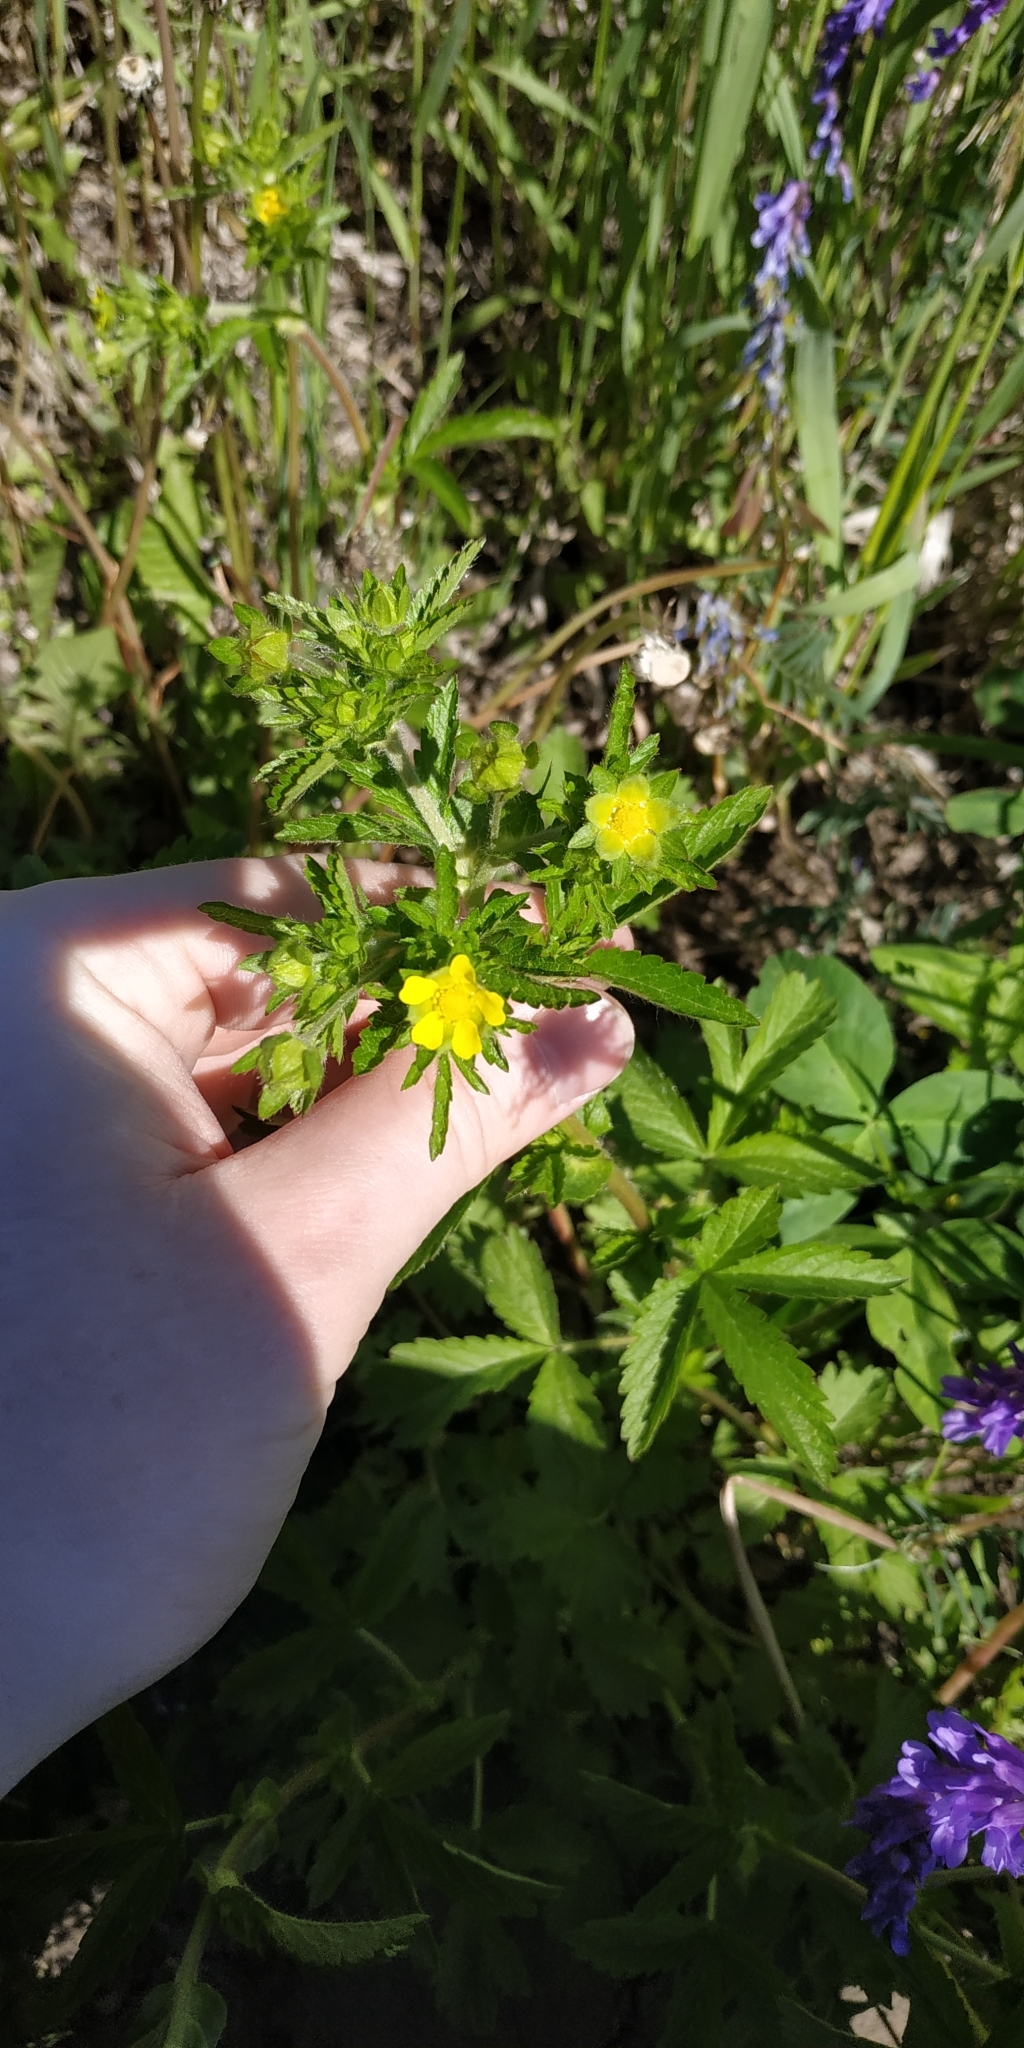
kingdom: Plantae
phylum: Tracheophyta
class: Magnoliopsida
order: Rosales
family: Rosaceae
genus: Potentilla
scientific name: Potentilla norvegica
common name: Ternate-leaved cinquefoil
